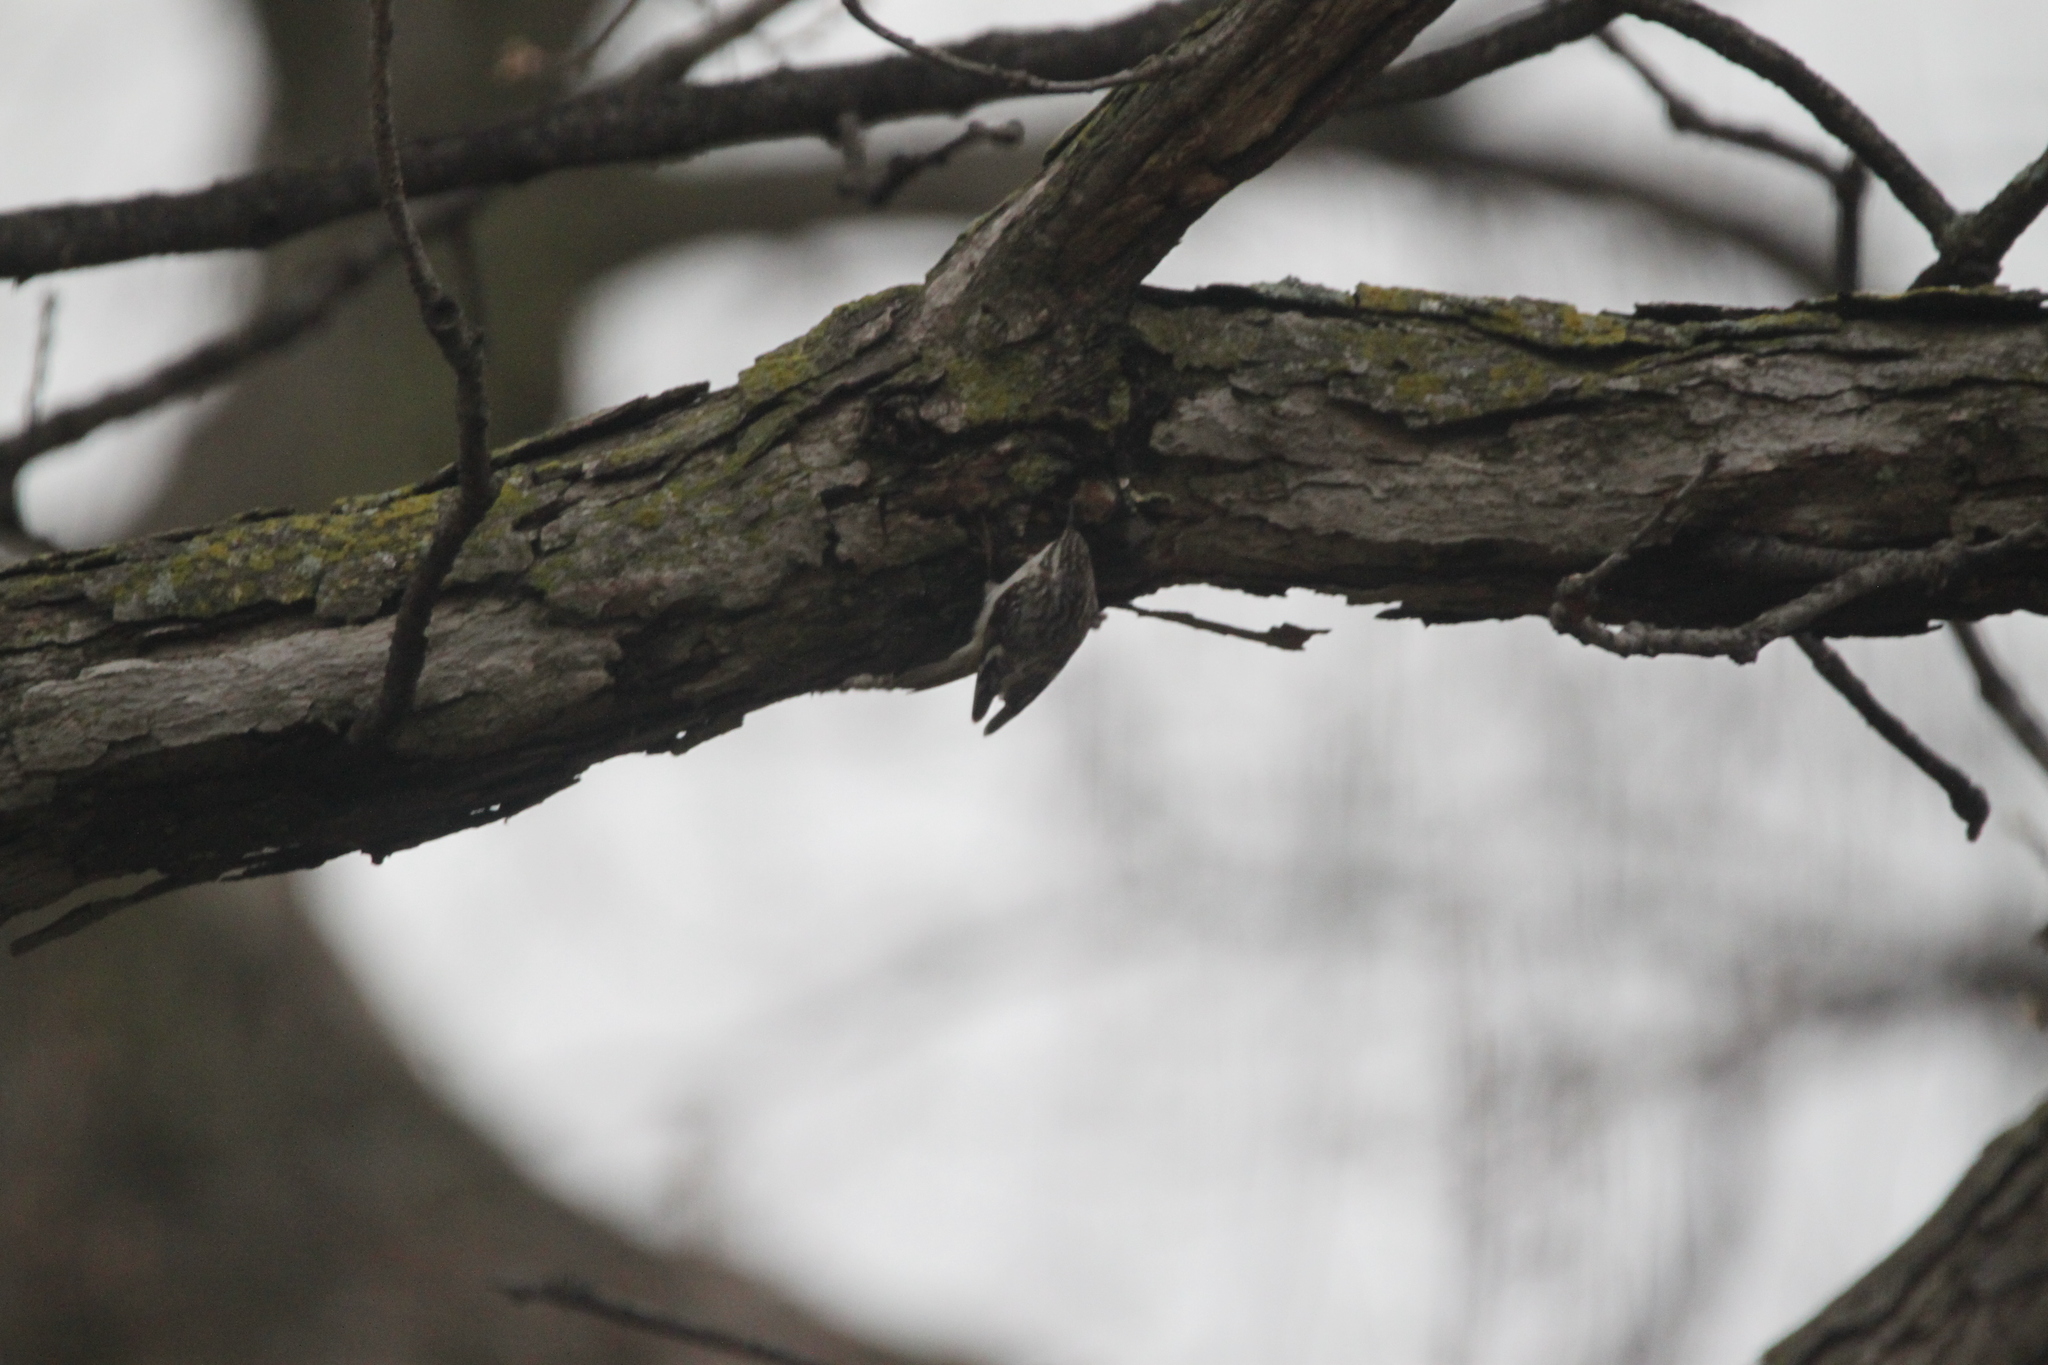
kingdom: Animalia
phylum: Chordata
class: Aves
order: Passeriformes
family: Certhiidae
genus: Certhia
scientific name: Certhia americana
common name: Brown creeper
